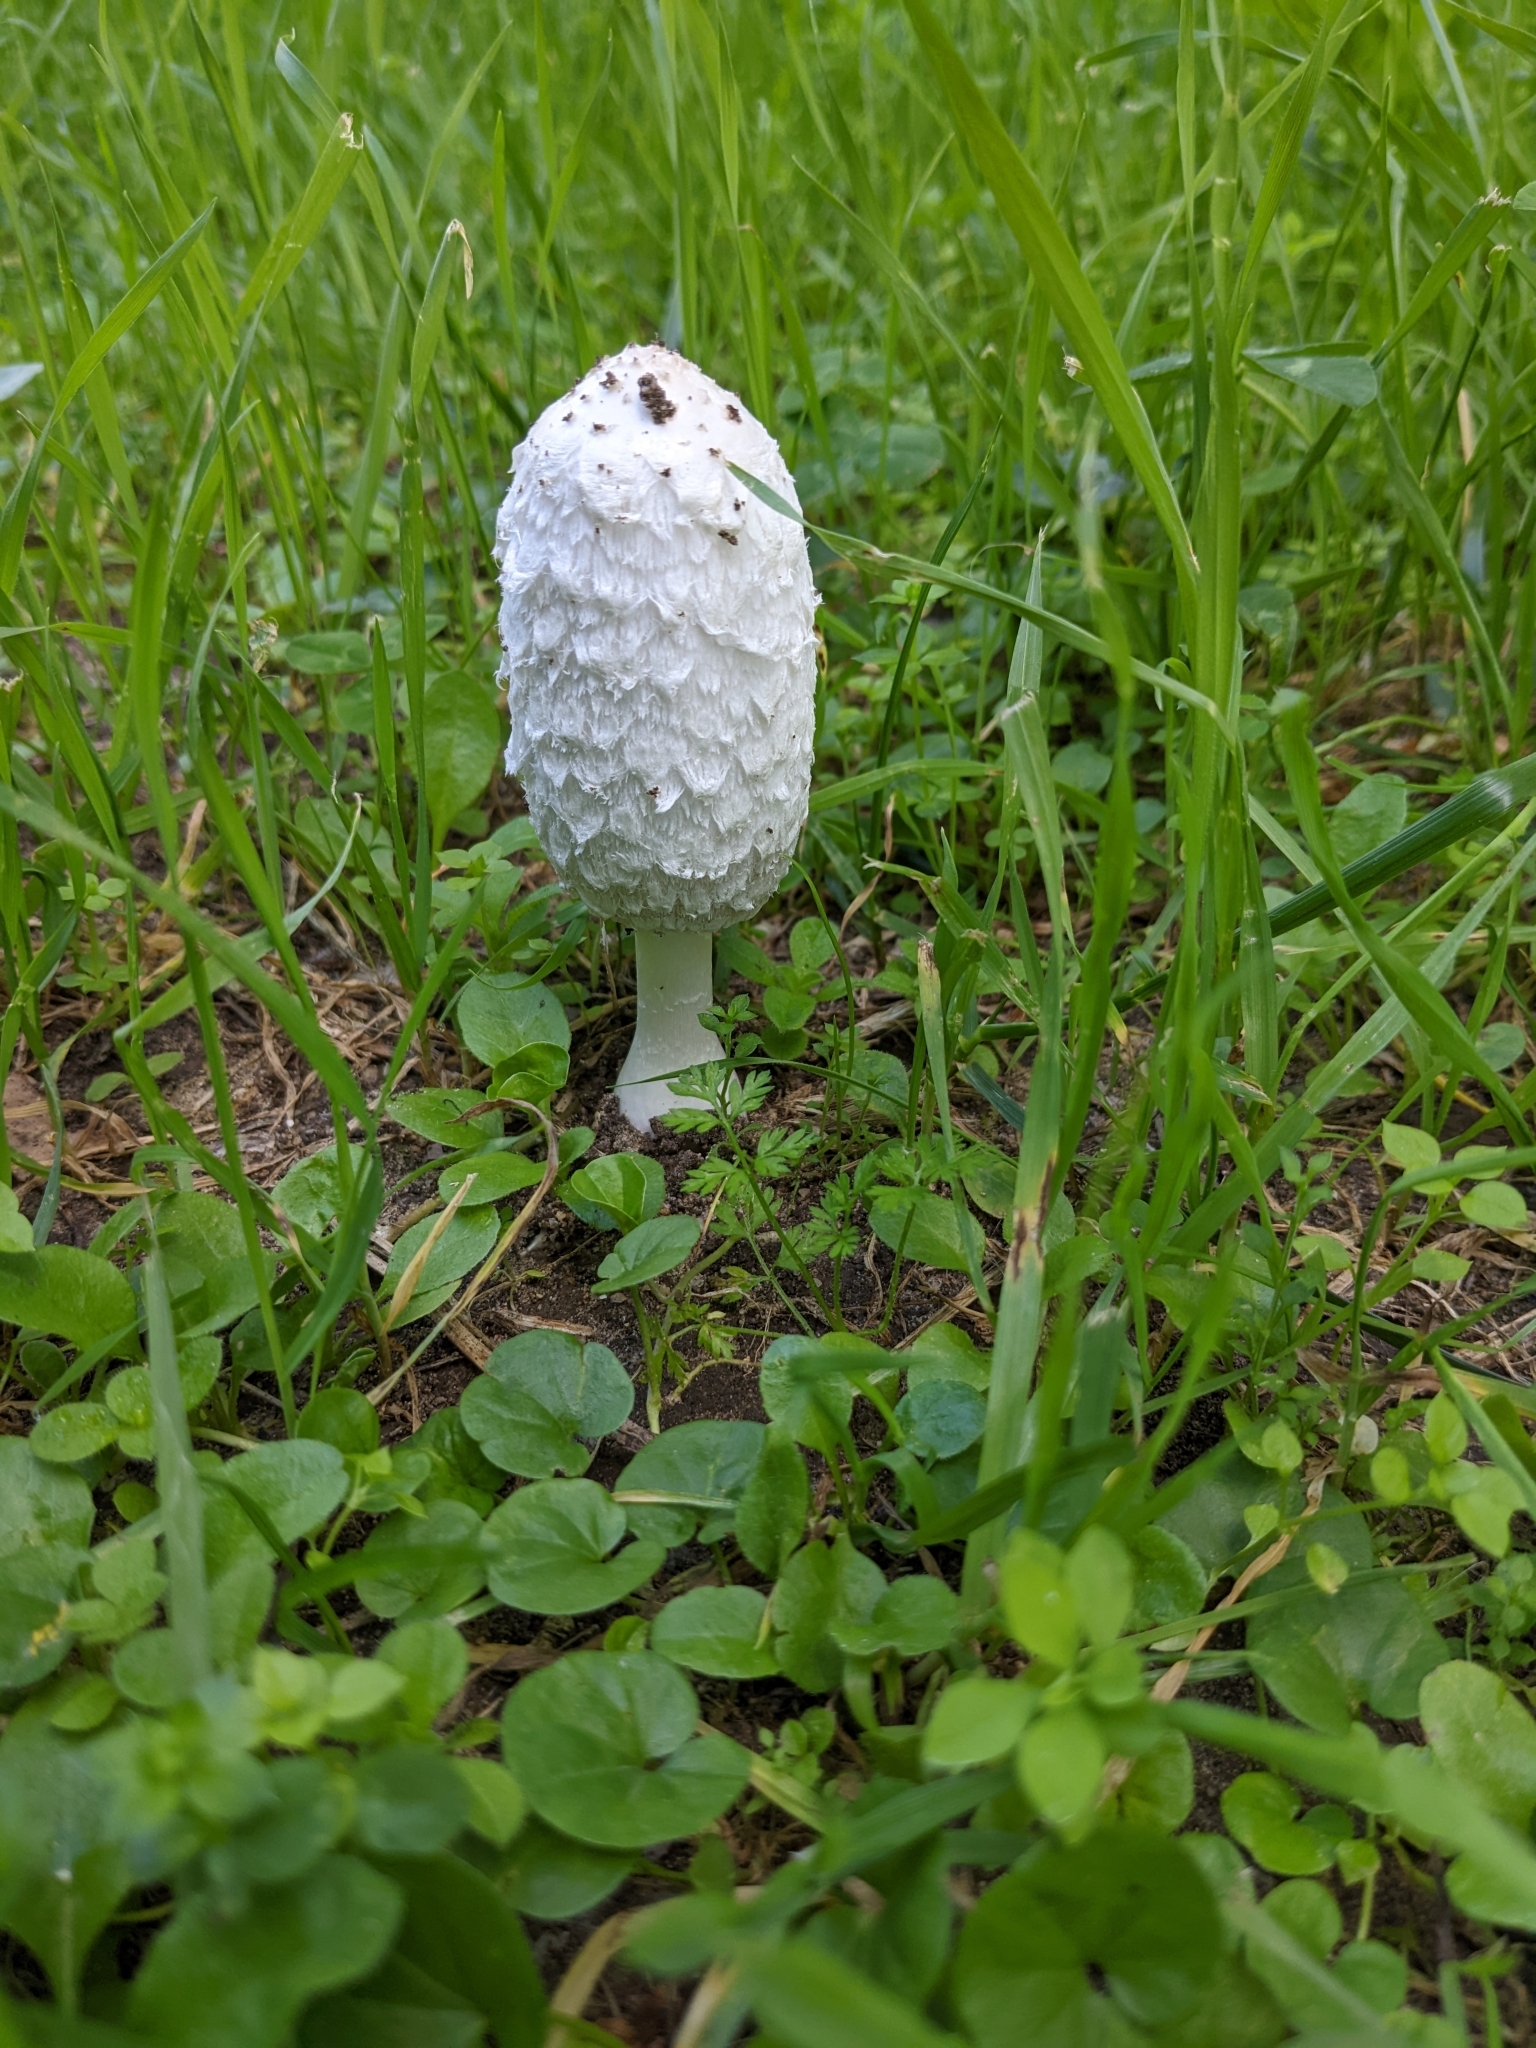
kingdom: Fungi
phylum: Basidiomycota
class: Agaricomycetes
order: Agaricales
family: Agaricaceae
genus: Coprinus
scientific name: Coprinus comatus
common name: Lawyer's wig
